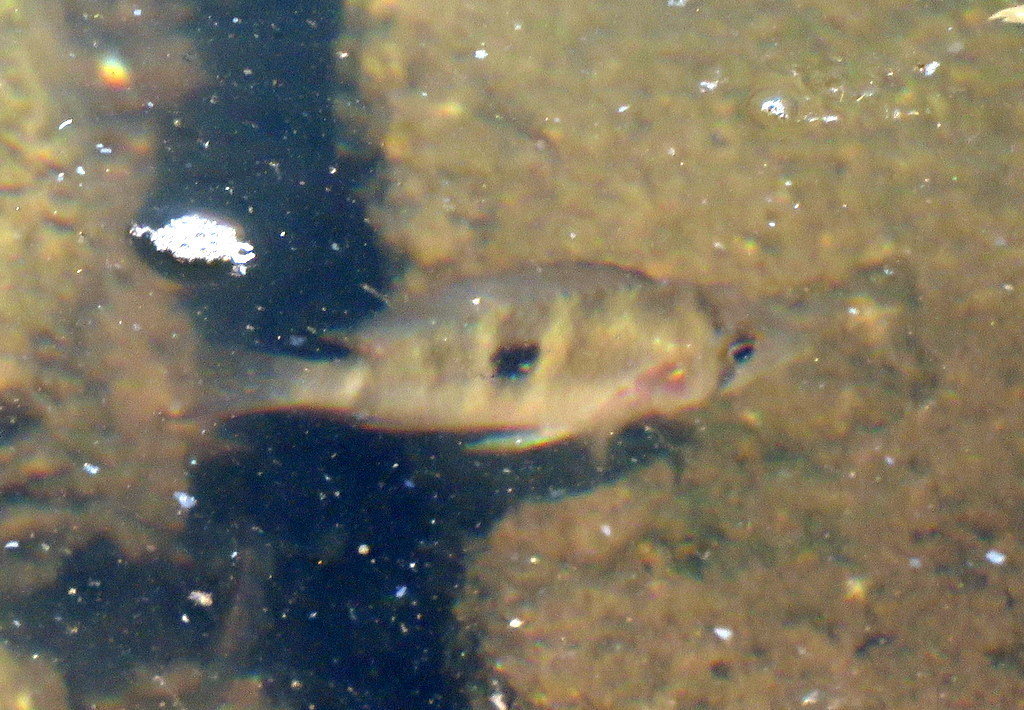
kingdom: Animalia
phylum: Chordata
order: Perciformes
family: Cichlidae
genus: Gymnogeophagus
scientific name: Gymnogeophagus meridionalis
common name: Earth eater
